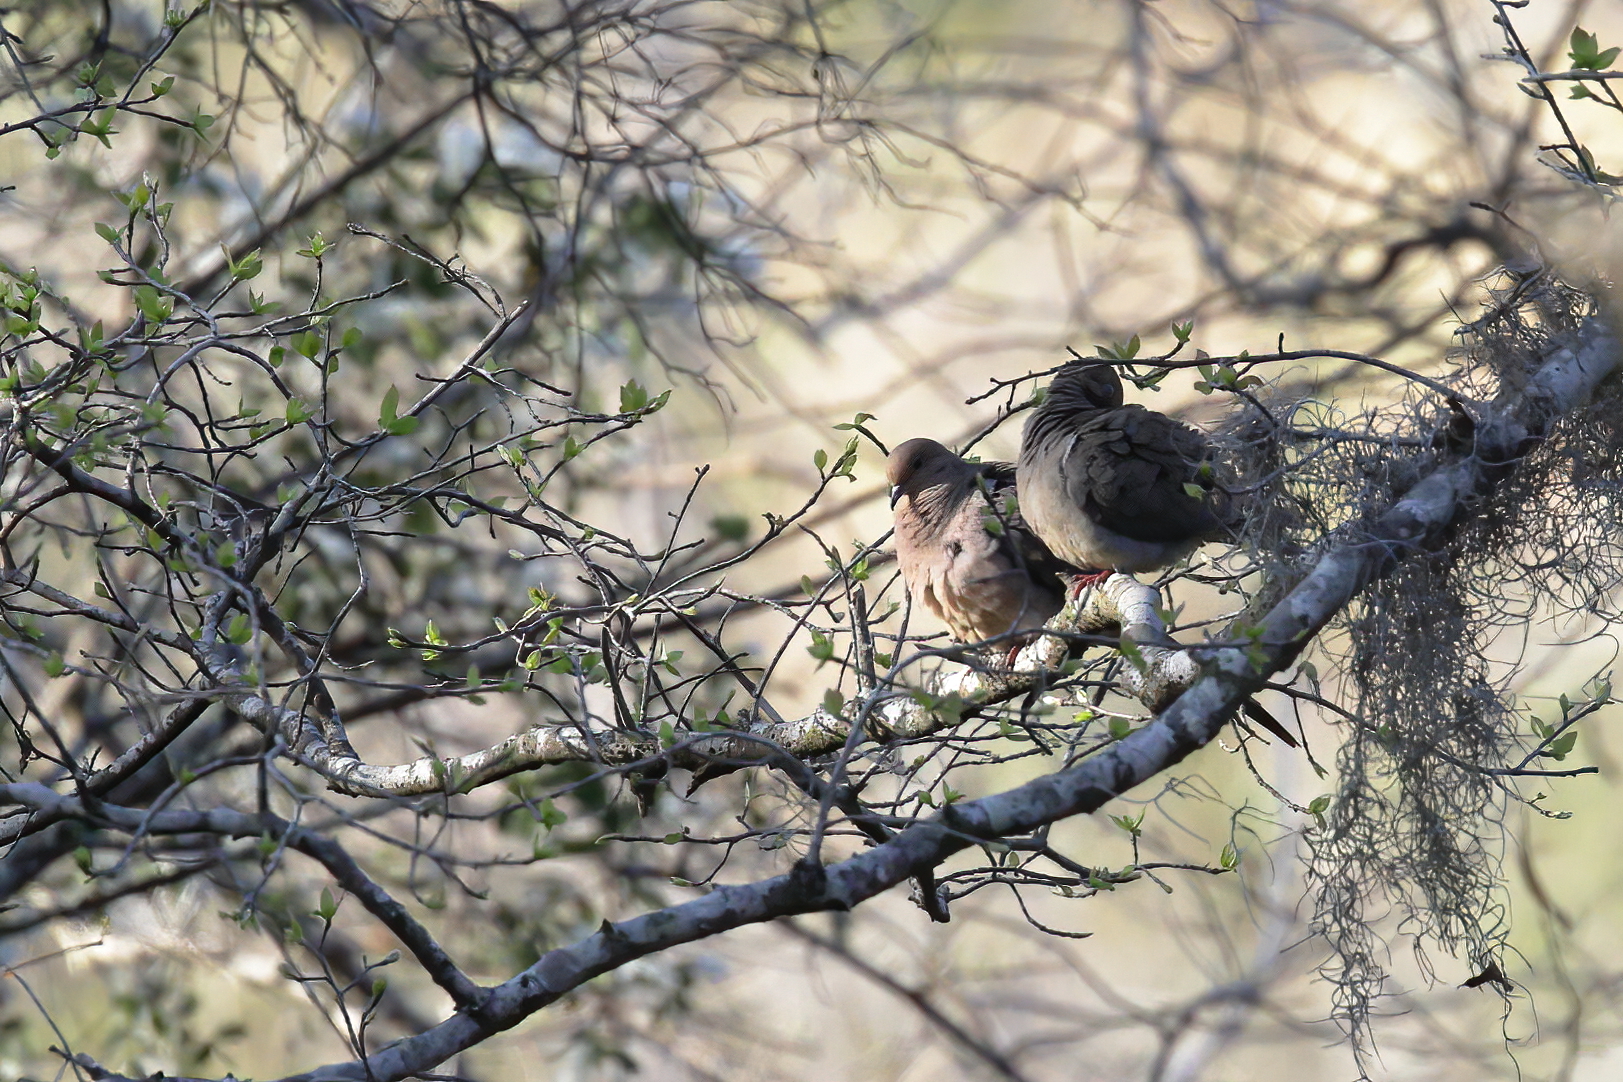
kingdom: Animalia
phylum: Chordata
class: Aves
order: Columbiformes
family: Columbidae
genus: Zenaida
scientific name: Zenaida macroura
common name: Mourning dove
